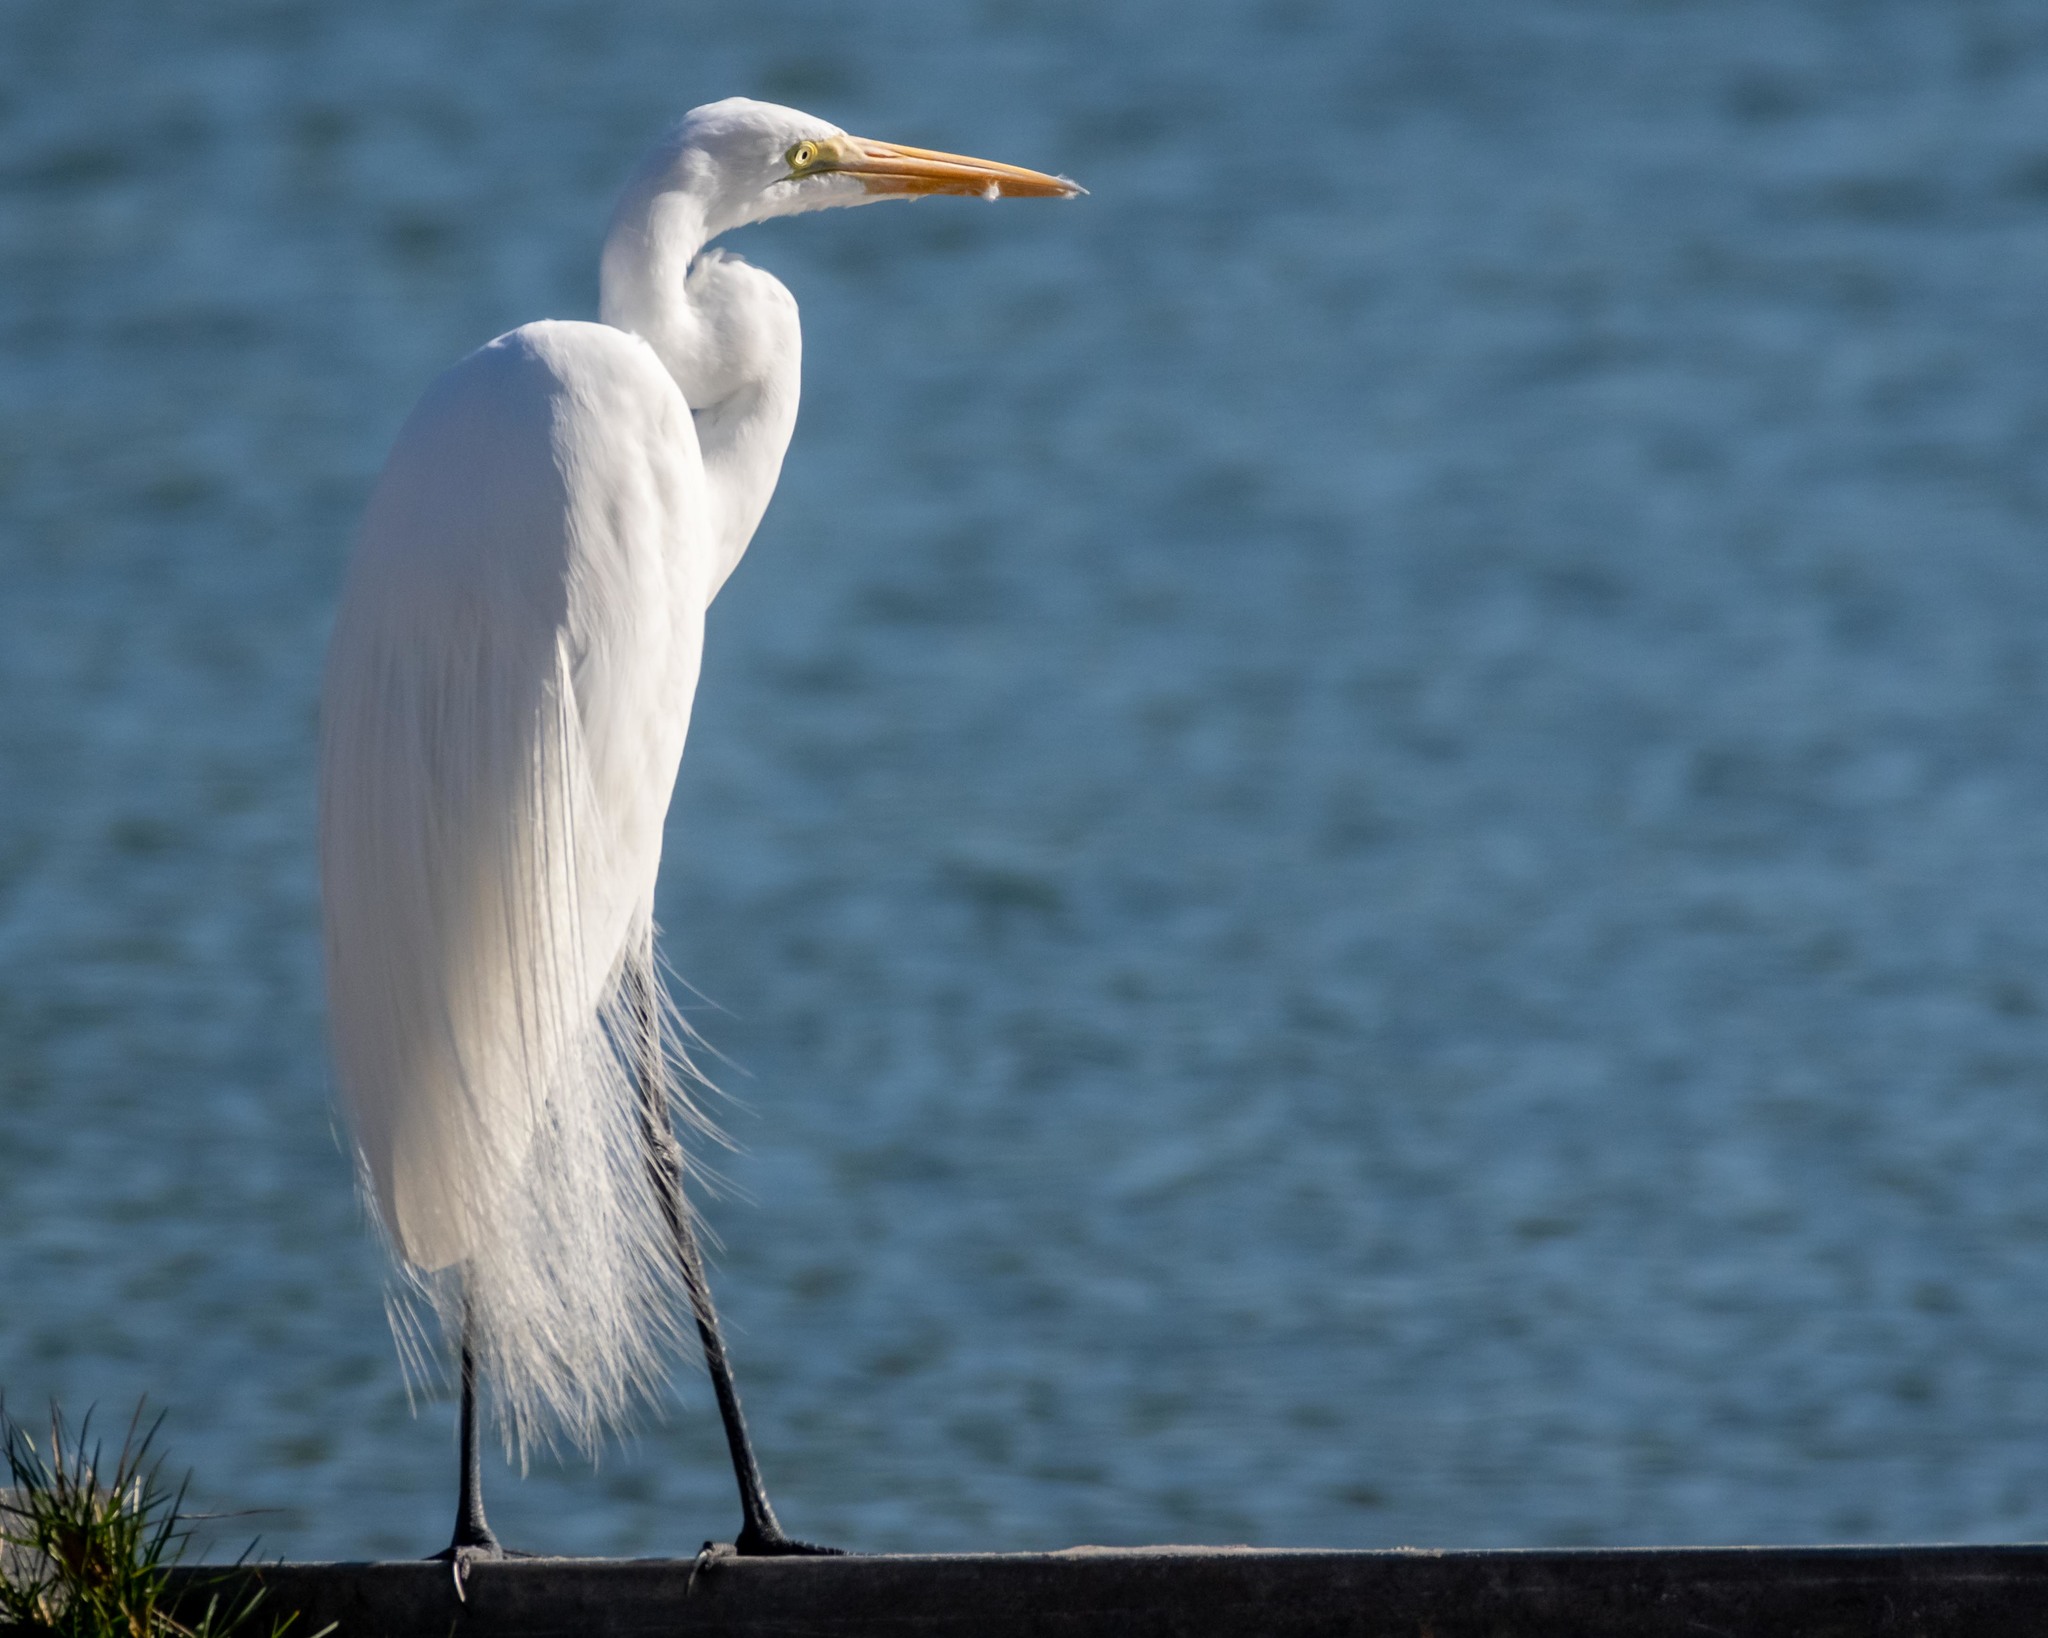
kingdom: Animalia
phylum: Chordata
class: Aves
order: Pelecaniformes
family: Ardeidae
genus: Ardea
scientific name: Ardea alba
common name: Great egret
